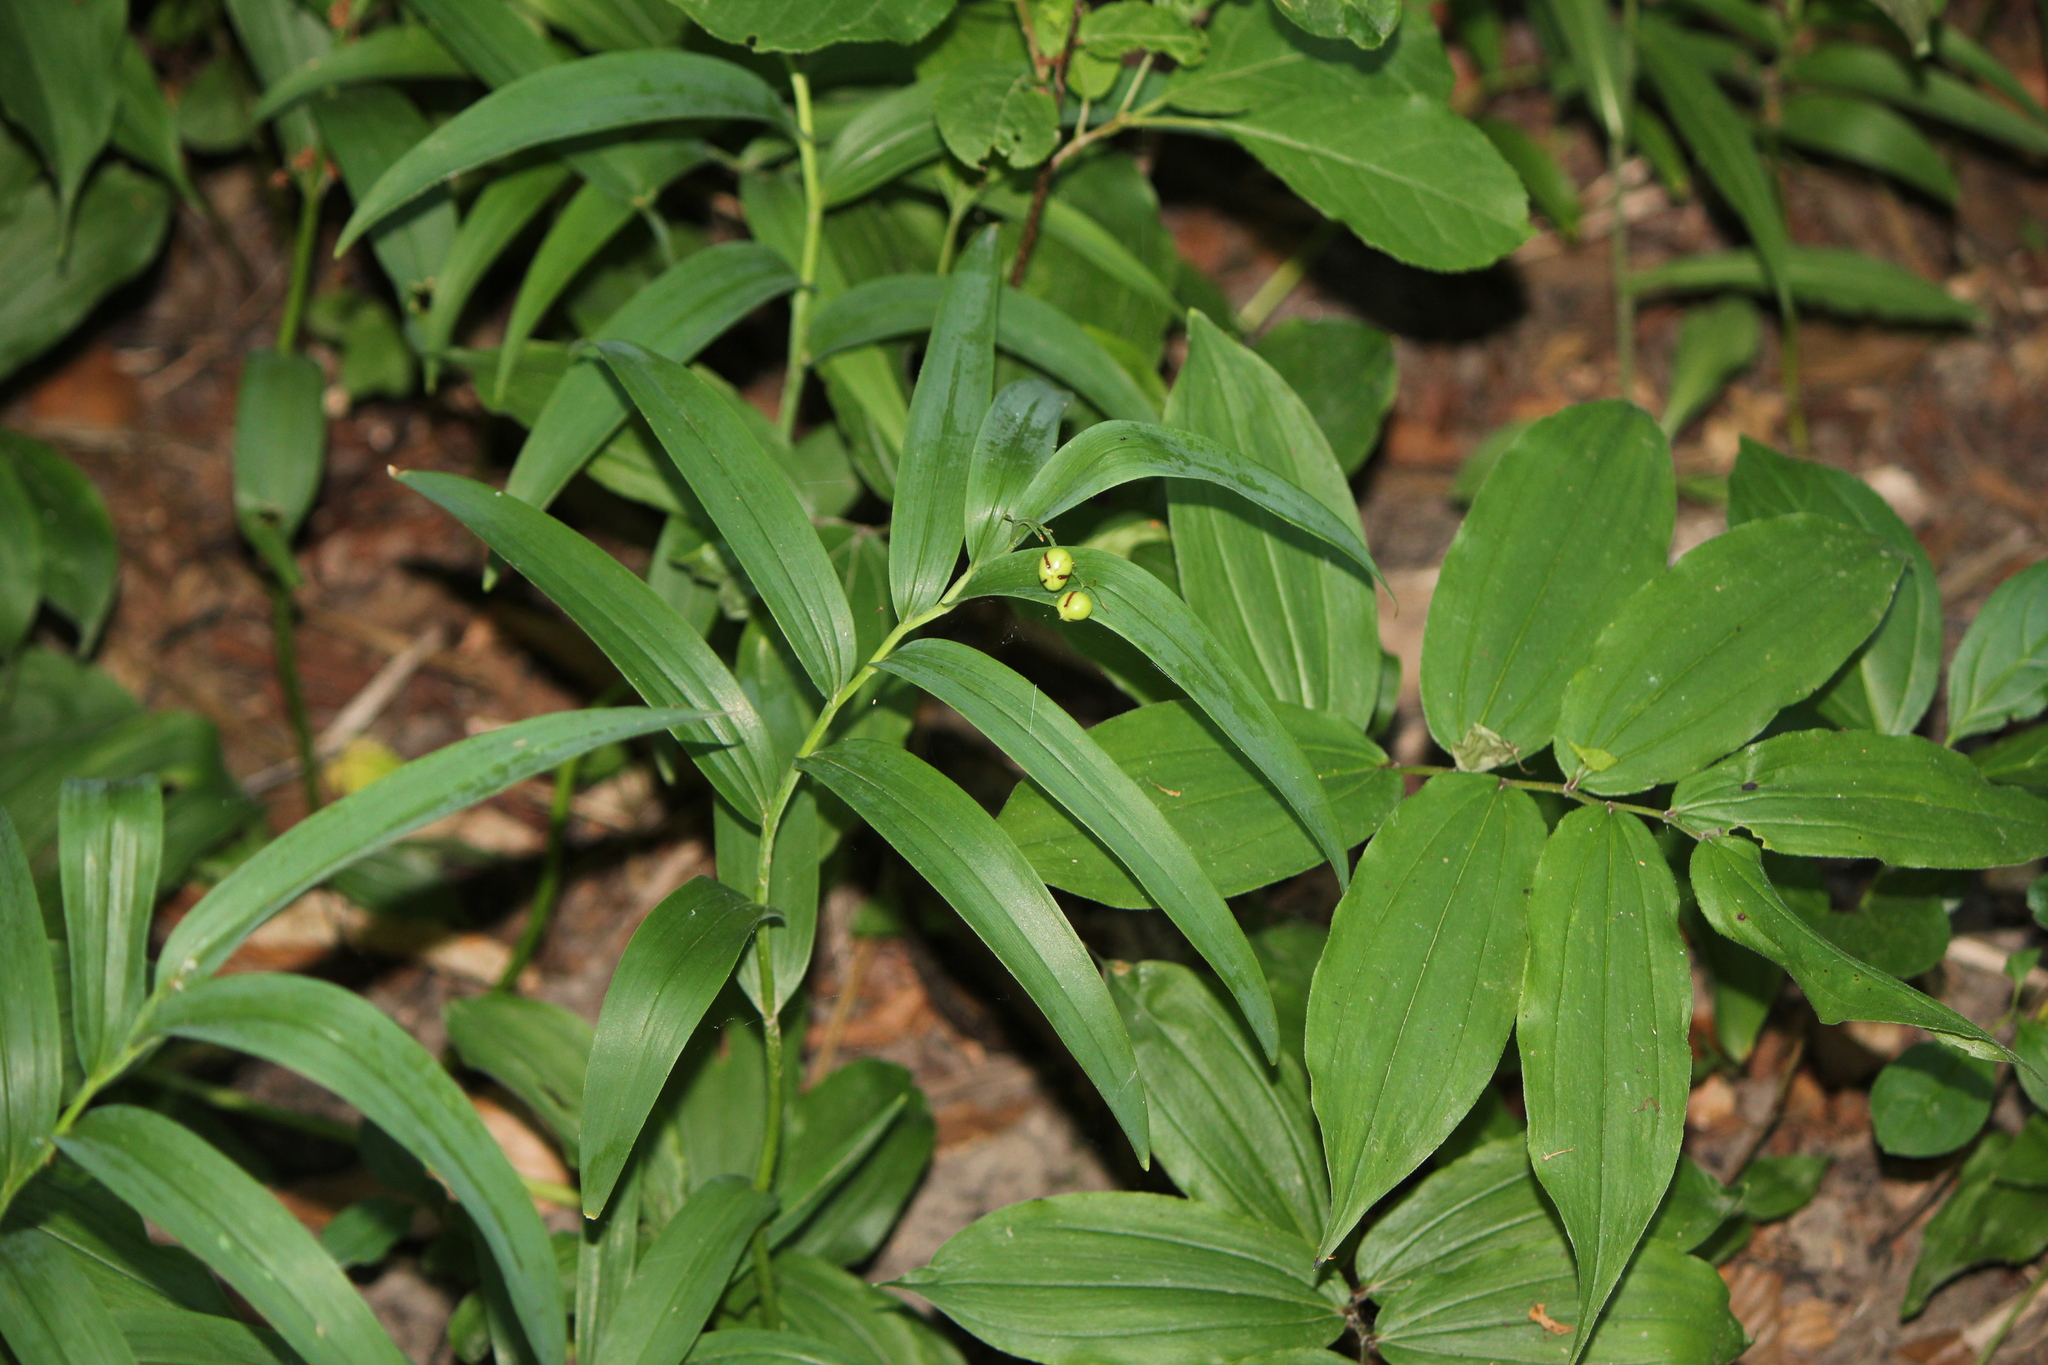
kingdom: Plantae
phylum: Tracheophyta
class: Liliopsida
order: Asparagales
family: Asparagaceae
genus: Maianthemum
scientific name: Maianthemum stellatum
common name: Little false solomon's seal
